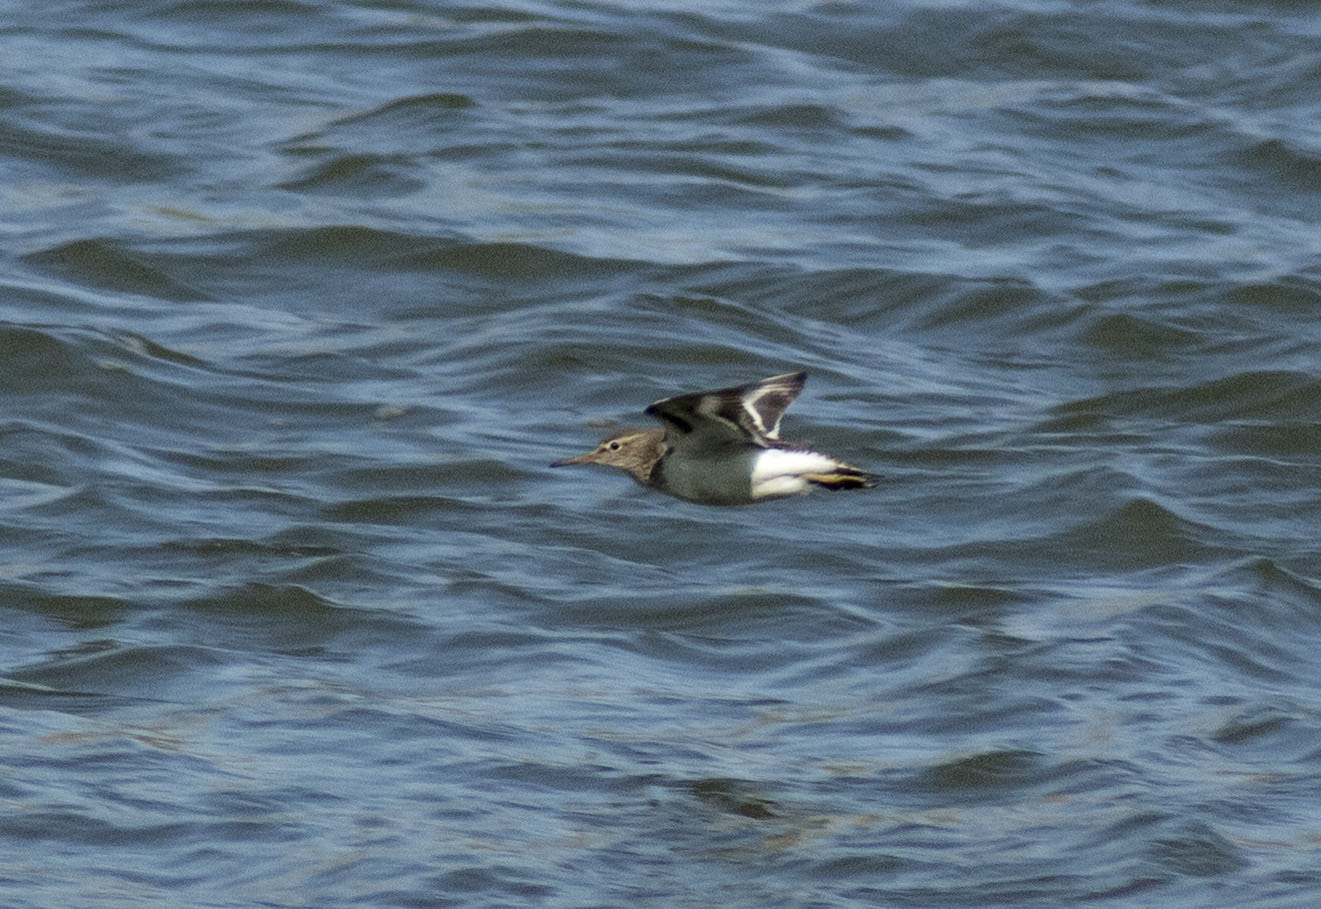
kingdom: Animalia
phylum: Chordata
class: Aves
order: Charadriiformes
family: Scolopacidae
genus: Actitis
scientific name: Actitis hypoleucos
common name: Common sandpiper
